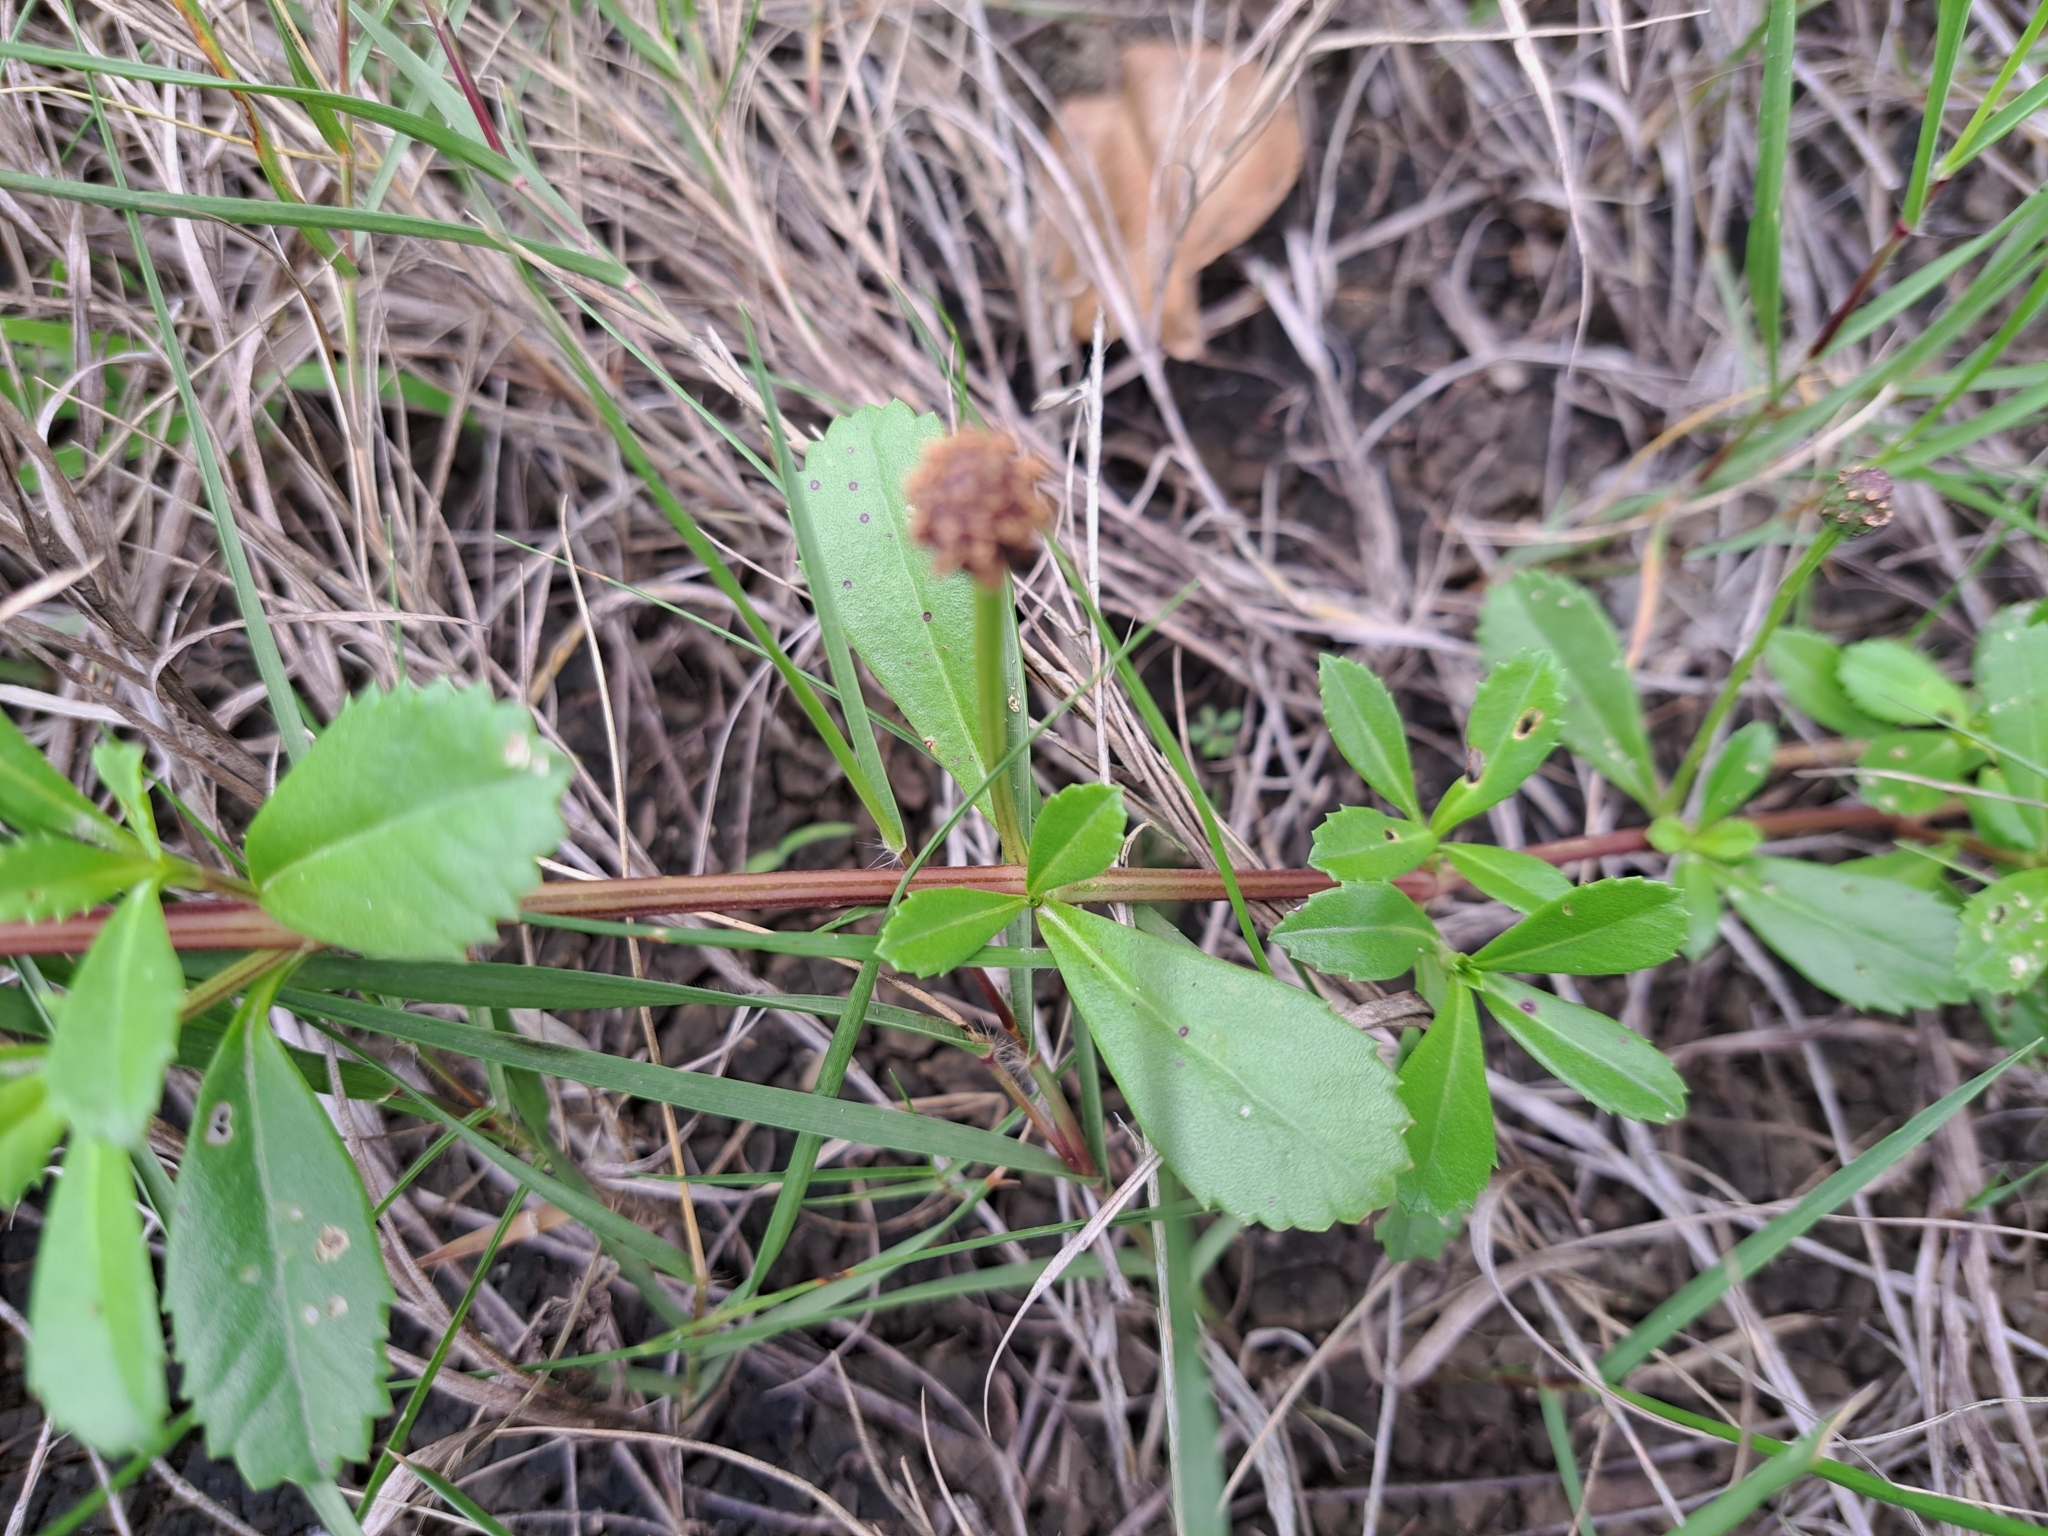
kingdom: Plantae
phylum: Tracheophyta
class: Magnoliopsida
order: Lamiales
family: Verbenaceae
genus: Phyla
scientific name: Phyla nodiflora
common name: Frogfruit
